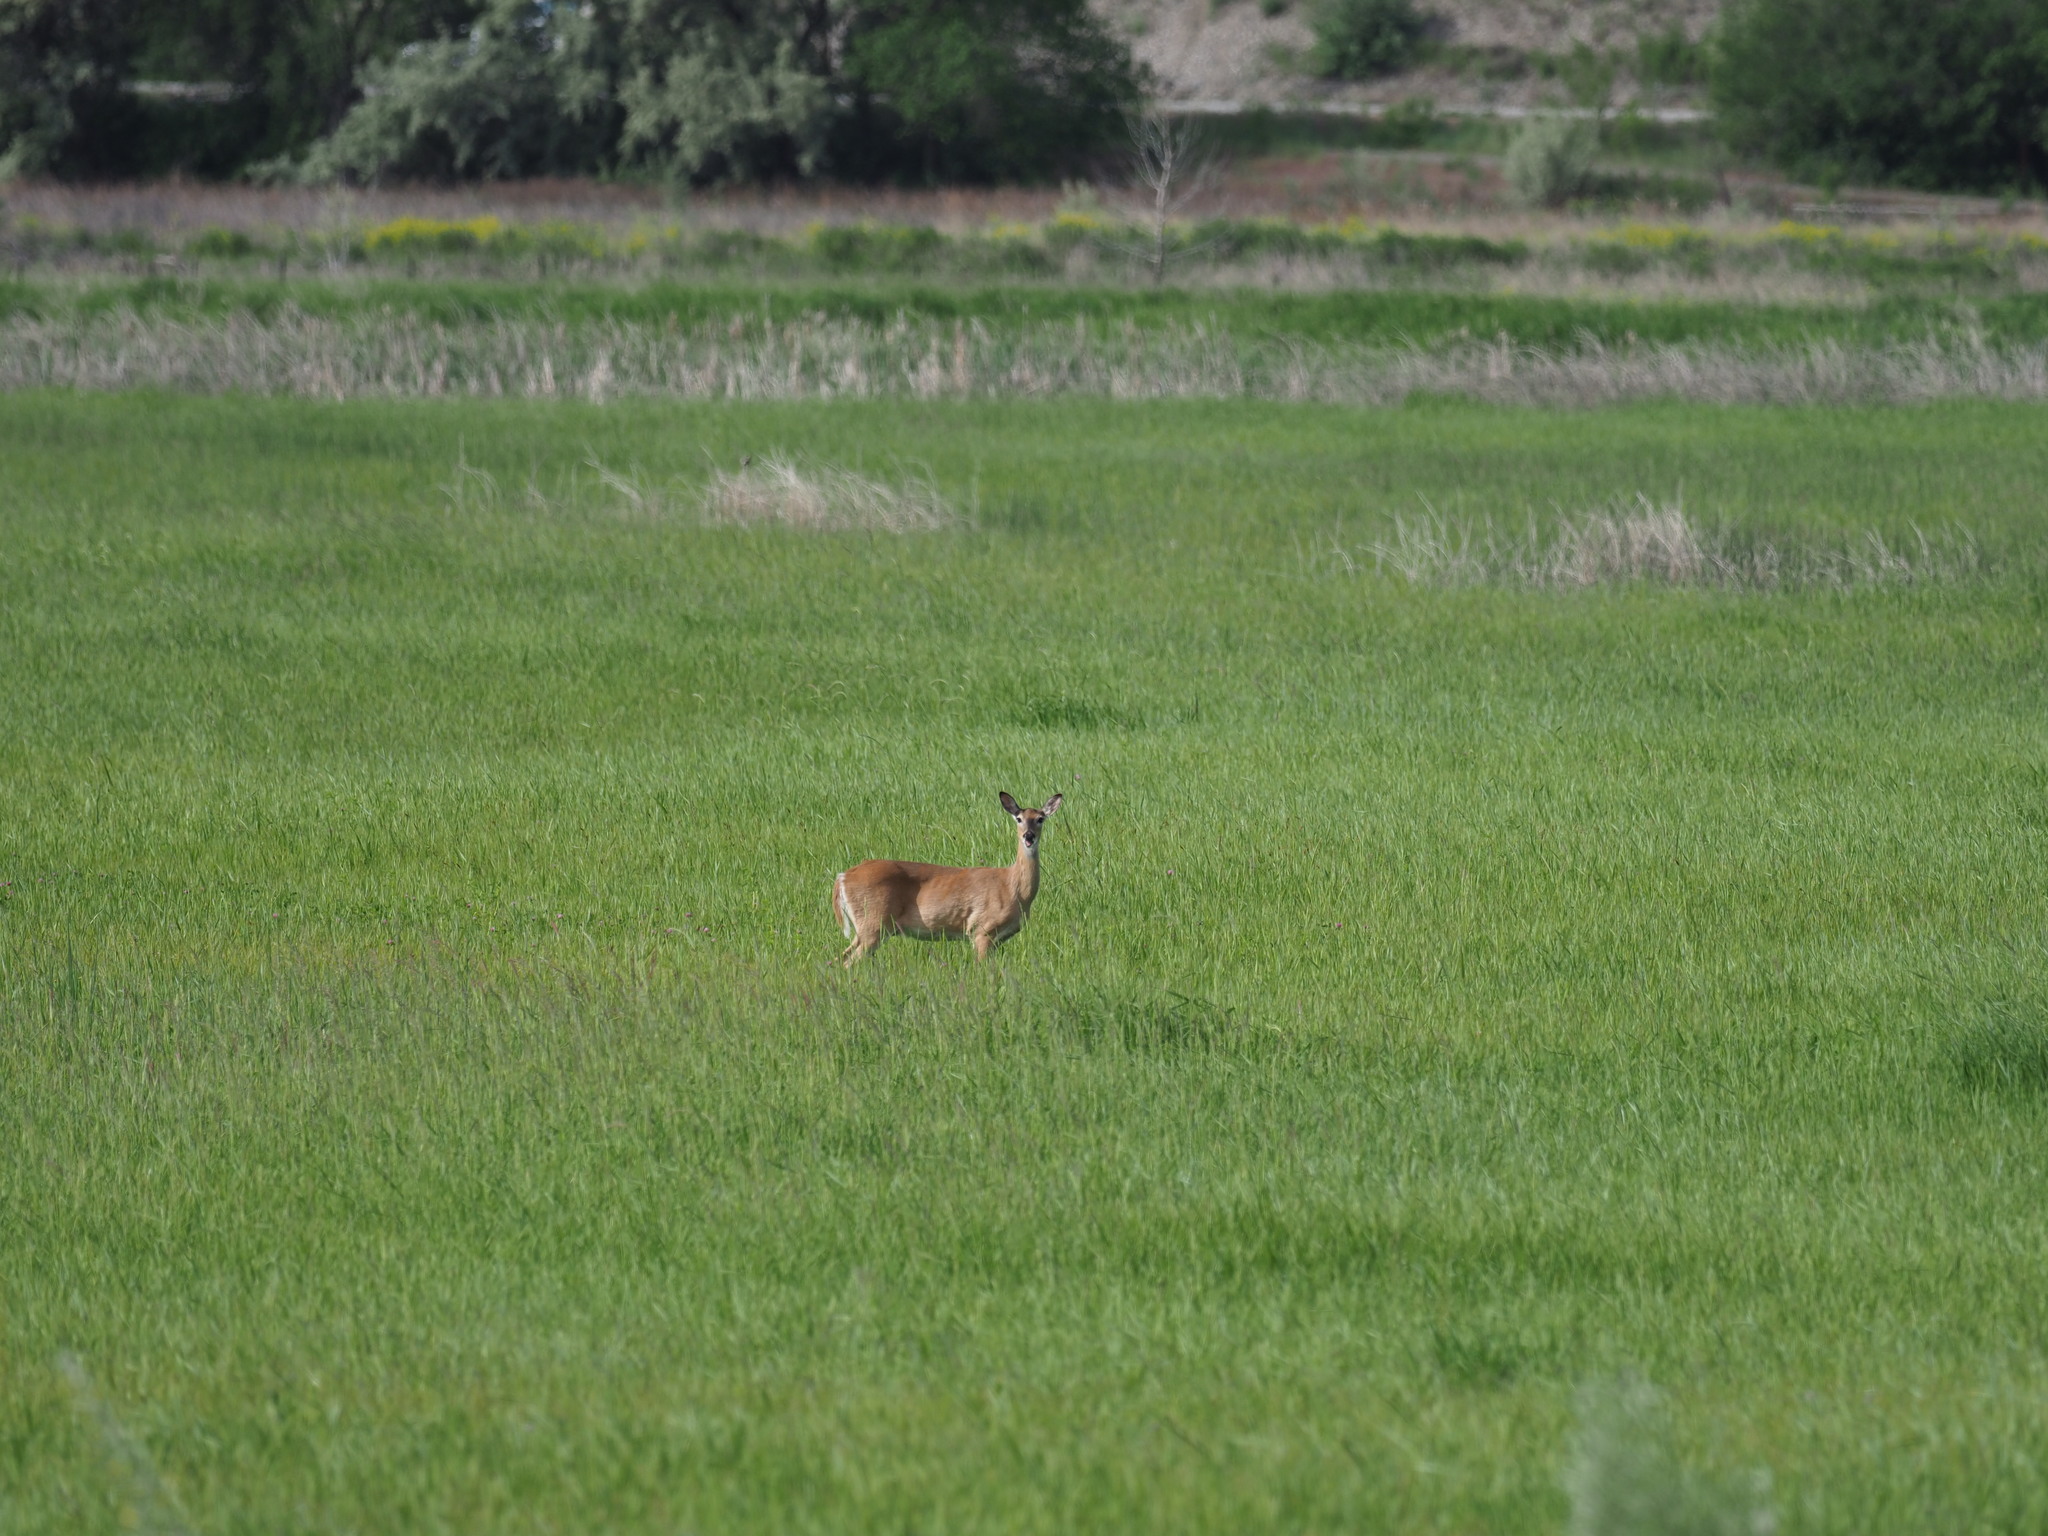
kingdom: Animalia
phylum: Chordata
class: Mammalia
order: Artiodactyla
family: Cervidae
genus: Odocoileus
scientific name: Odocoileus virginianus
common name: White-tailed deer
